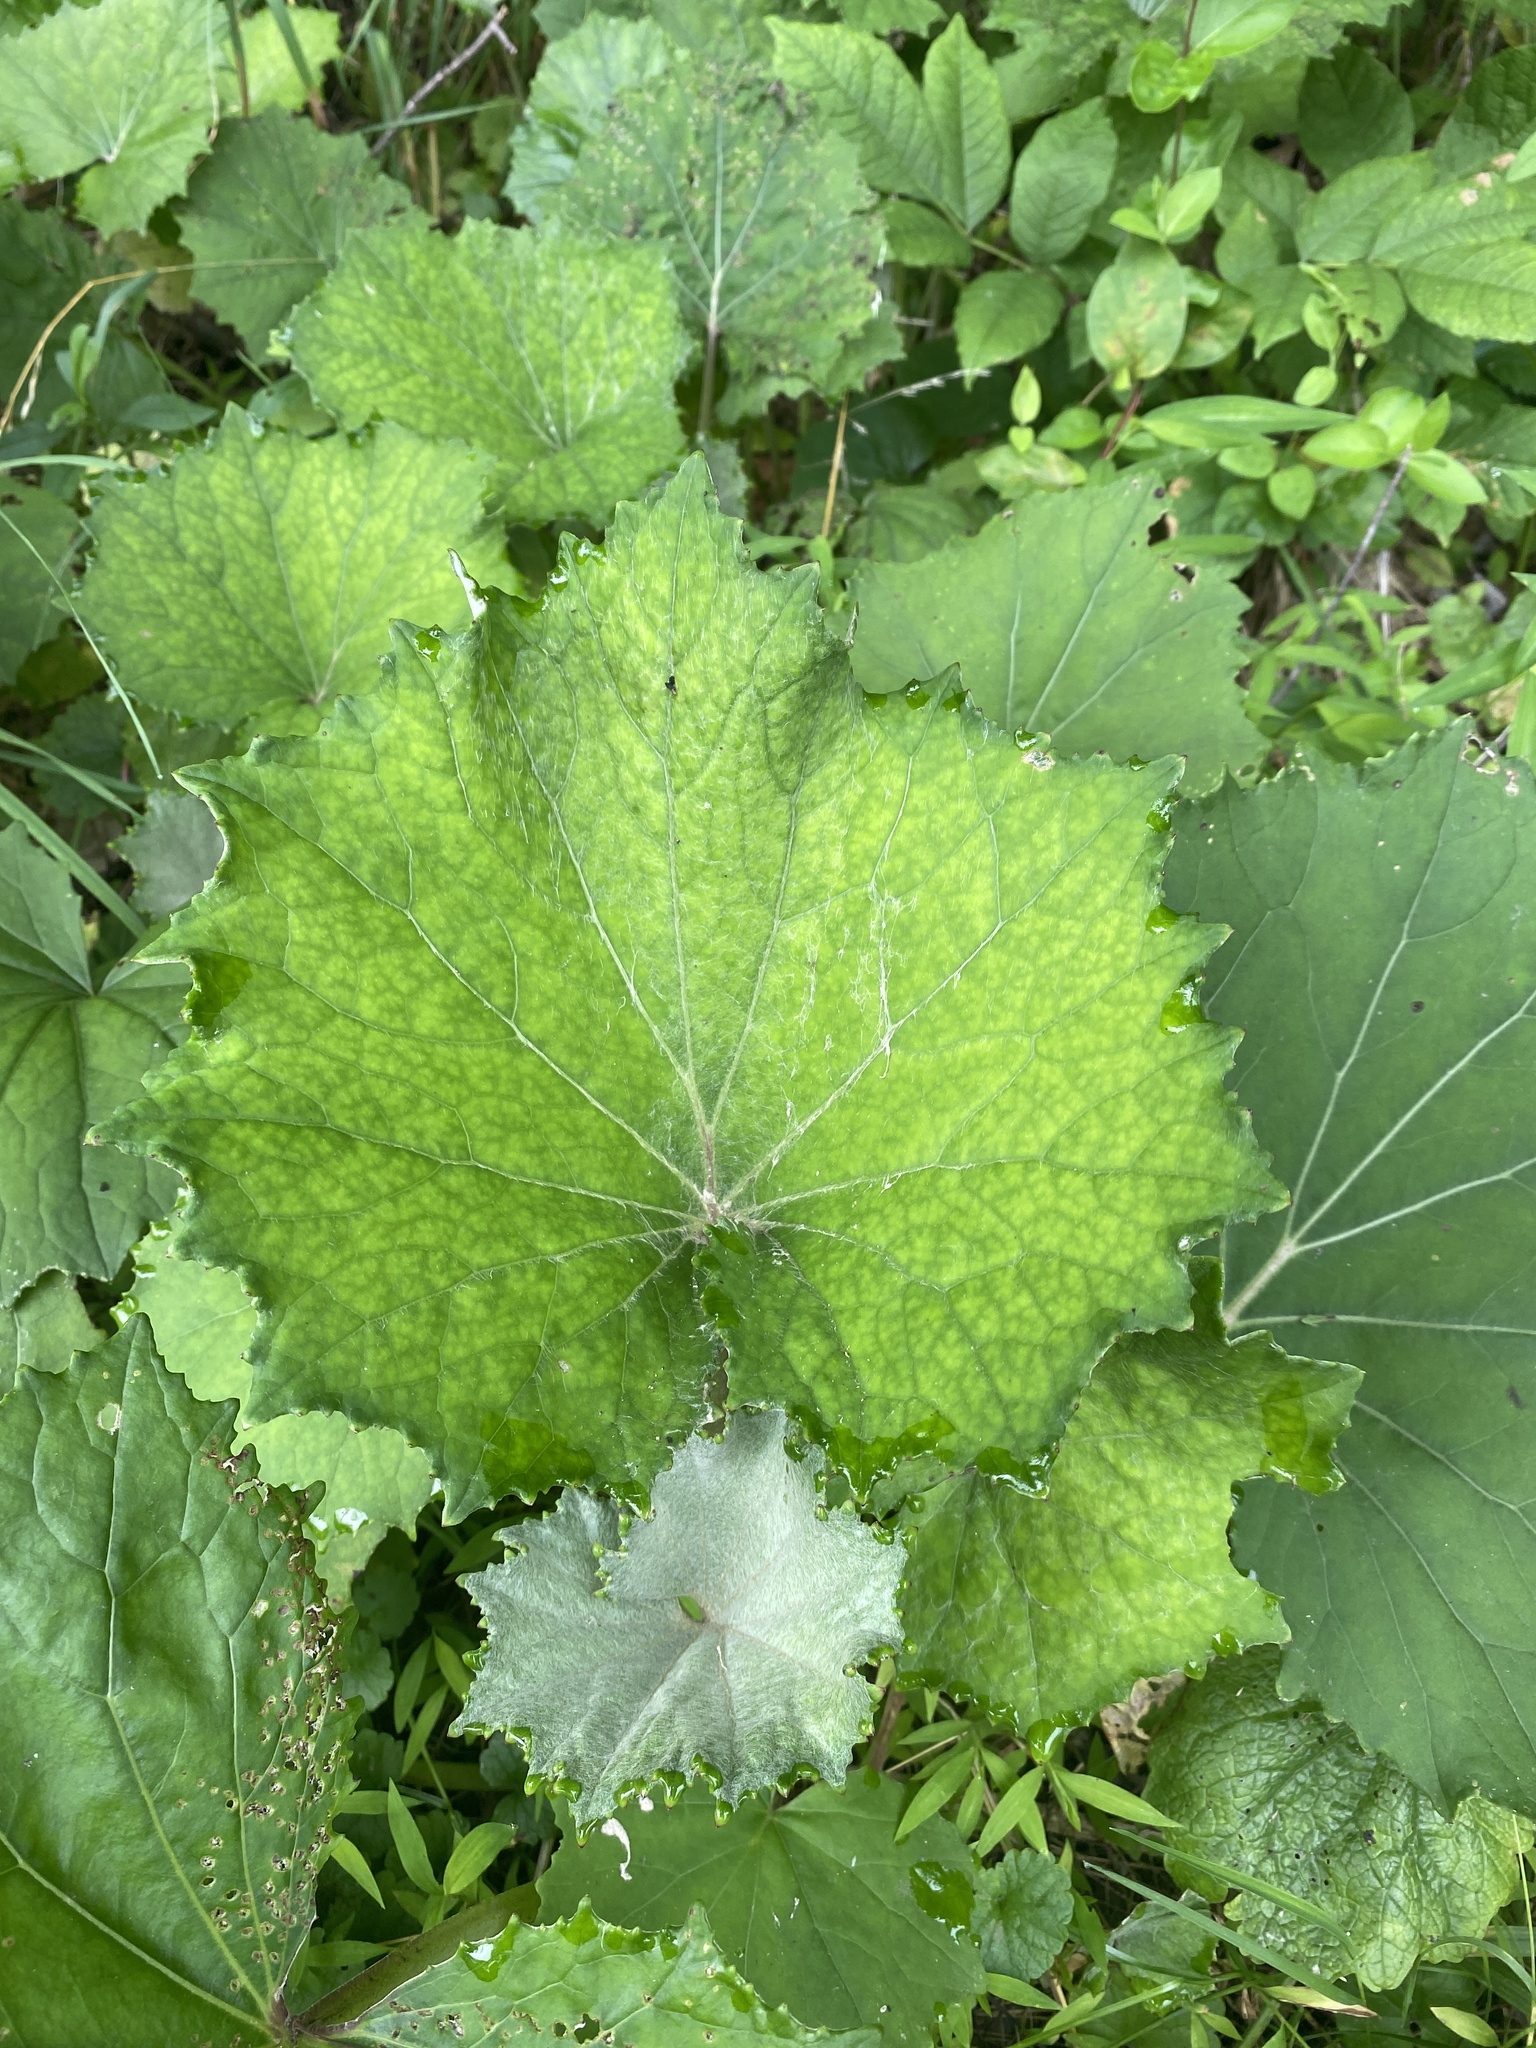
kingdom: Plantae
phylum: Tracheophyta
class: Magnoliopsida
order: Asterales
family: Asteraceae
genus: Tussilago
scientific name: Tussilago farfara
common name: Coltsfoot
